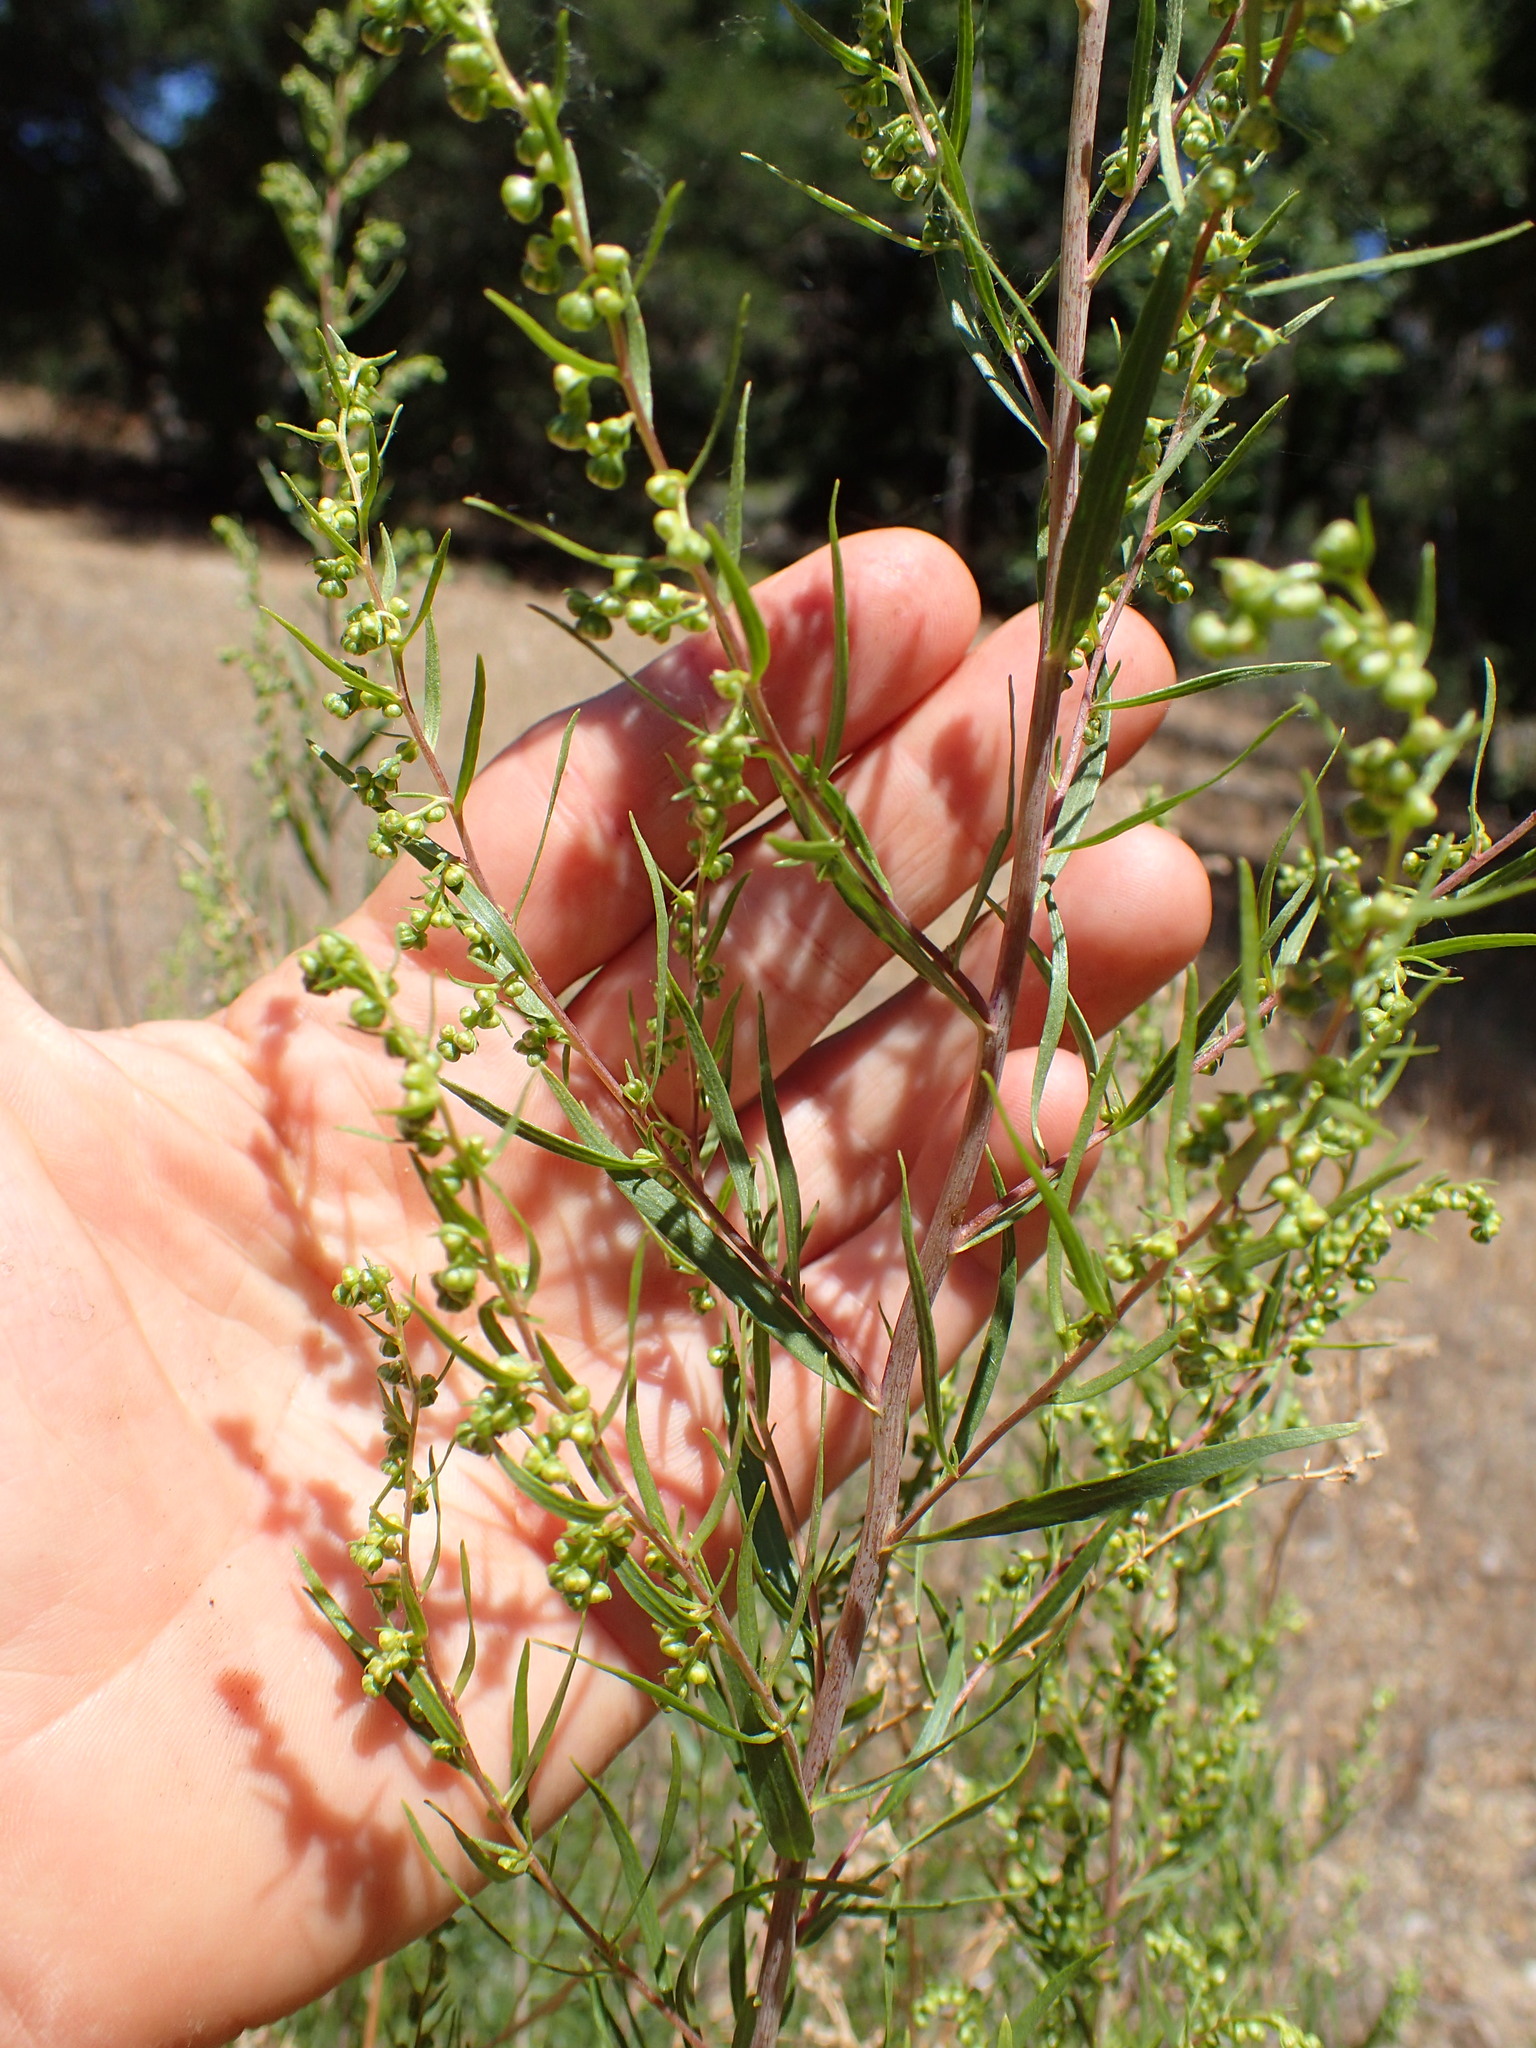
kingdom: Plantae
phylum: Tracheophyta
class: Magnoliopsida
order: Asterales
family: Asteraceae
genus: Artemisia
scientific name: Artemisia dracunculus
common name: Tarragon
